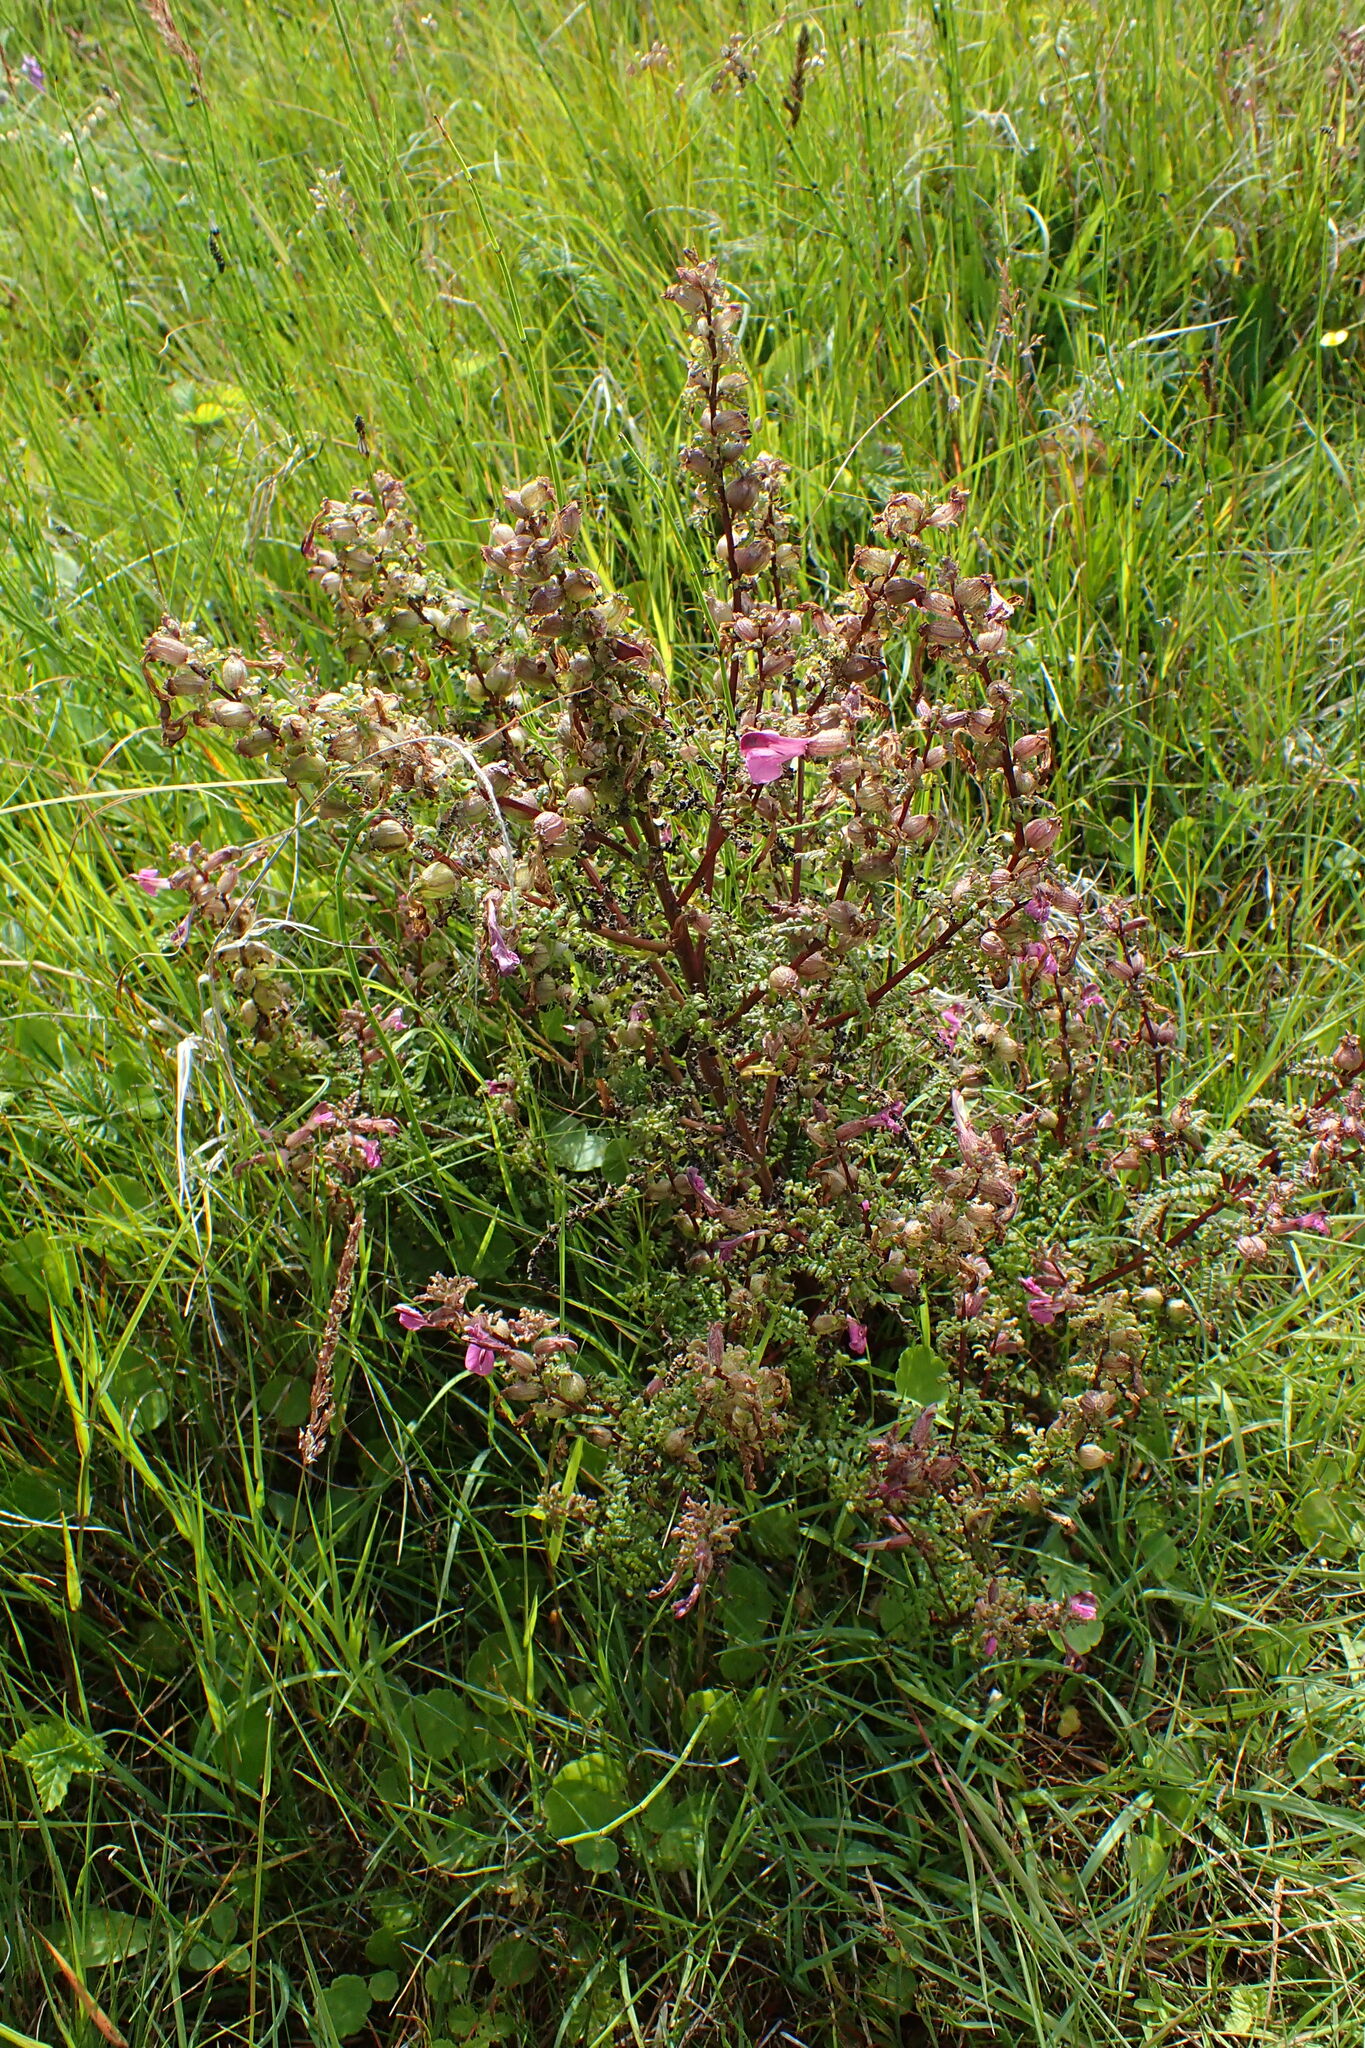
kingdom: Plantae
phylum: Tracheophyta
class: Magnoliopsida
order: Lamiales
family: Orobanchaceae
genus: Pedicularis
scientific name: Pedicularis palustris
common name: Marsh lousewort
